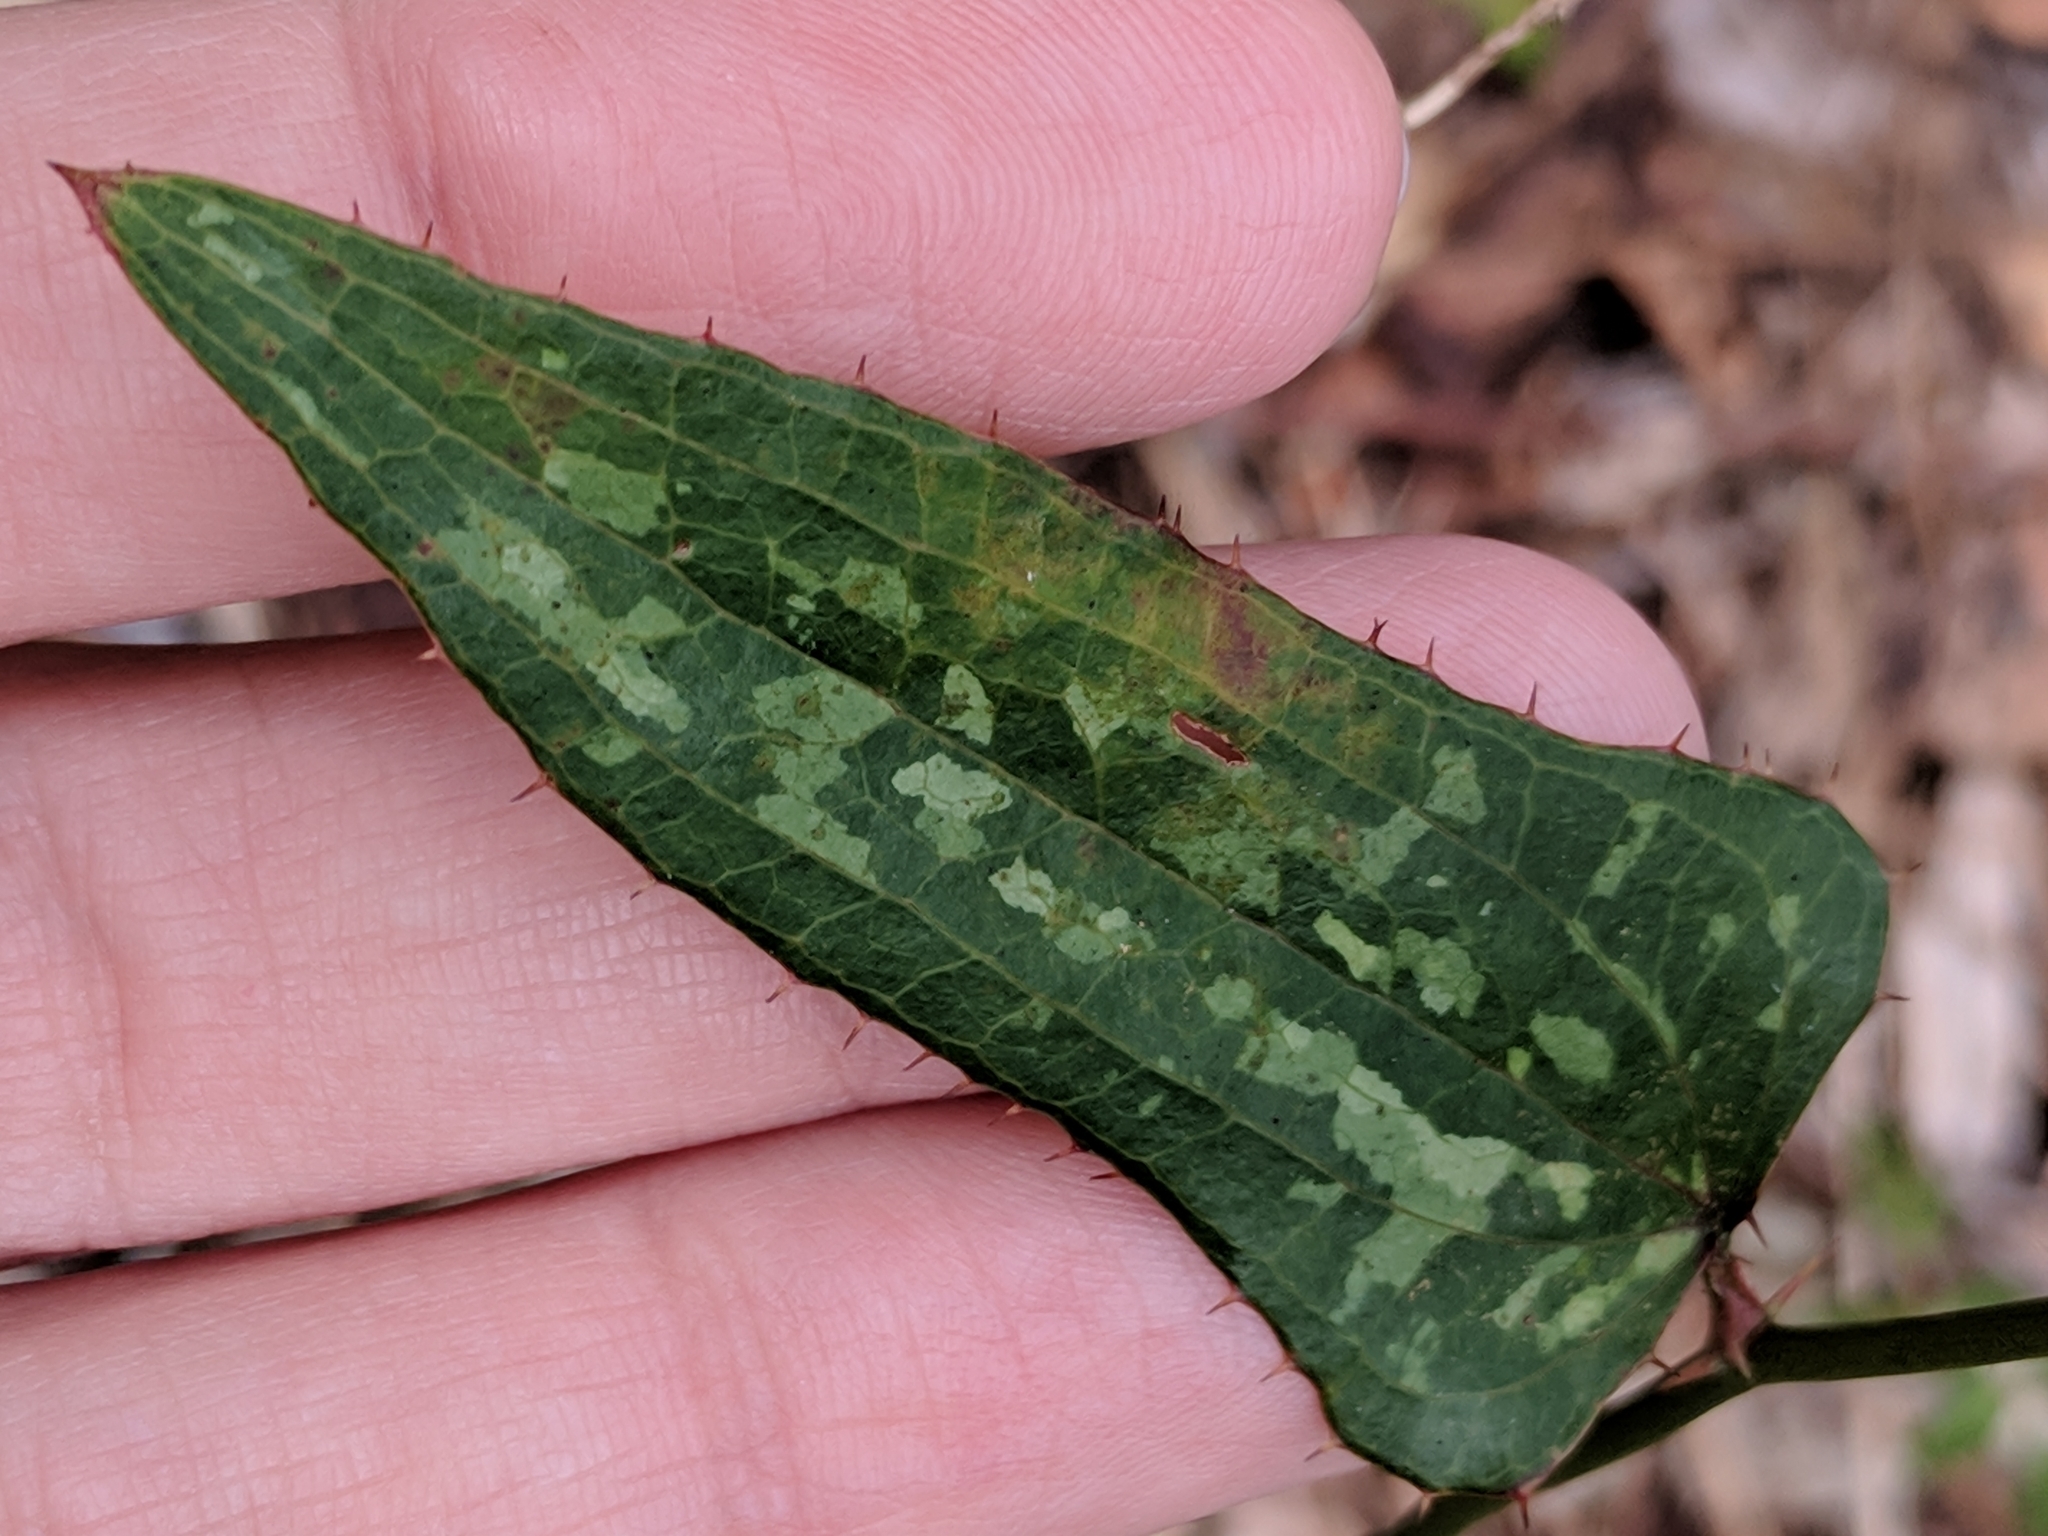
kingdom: Plantae
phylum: Tracheophyta
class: Liliopsida
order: Liliales
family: Smilacaceae
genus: Smilax
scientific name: Smilax bona-nox
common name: Catbrier
